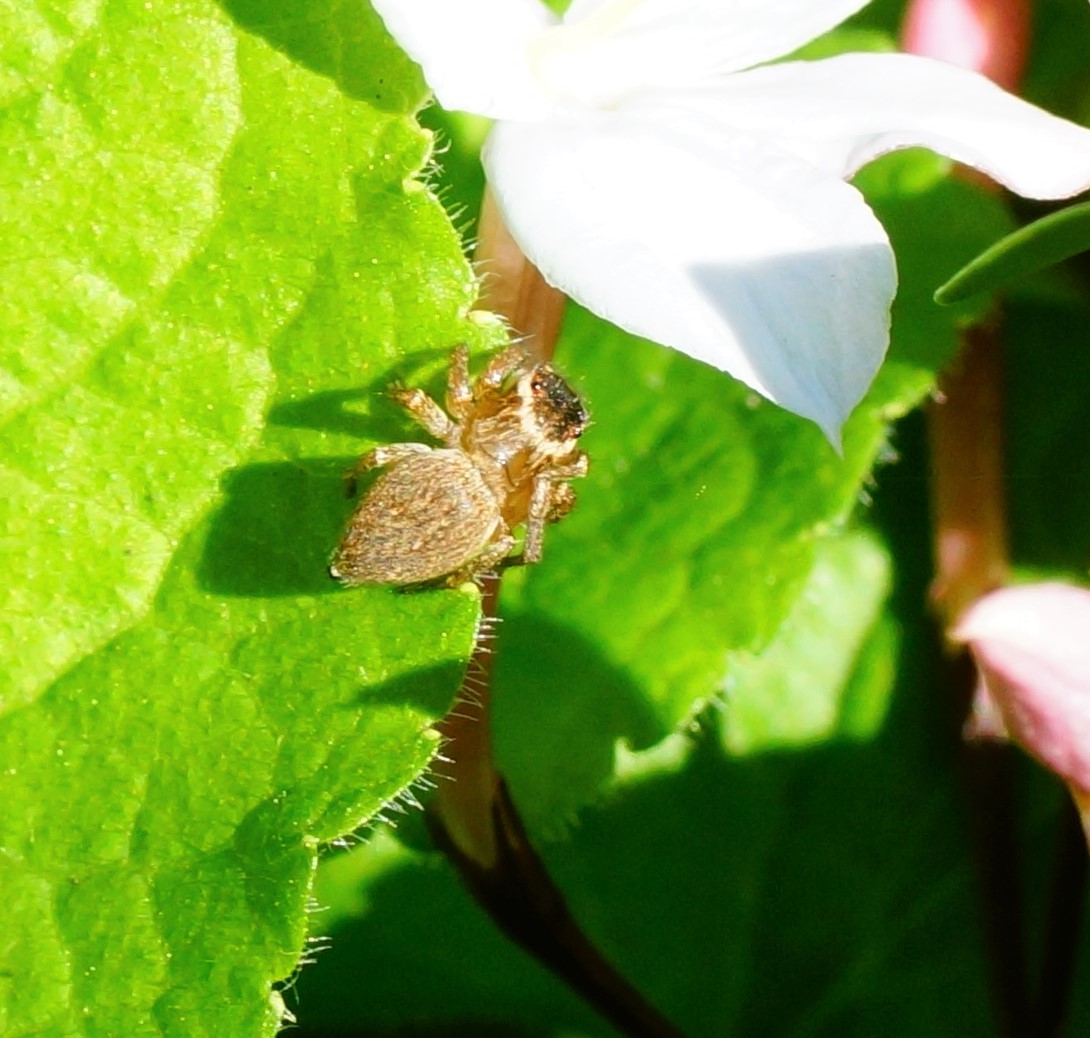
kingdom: Animalia
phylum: Arthropoda
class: Arachnida
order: Araneae
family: Salticidae
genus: Maratus
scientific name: Maratus griseus
